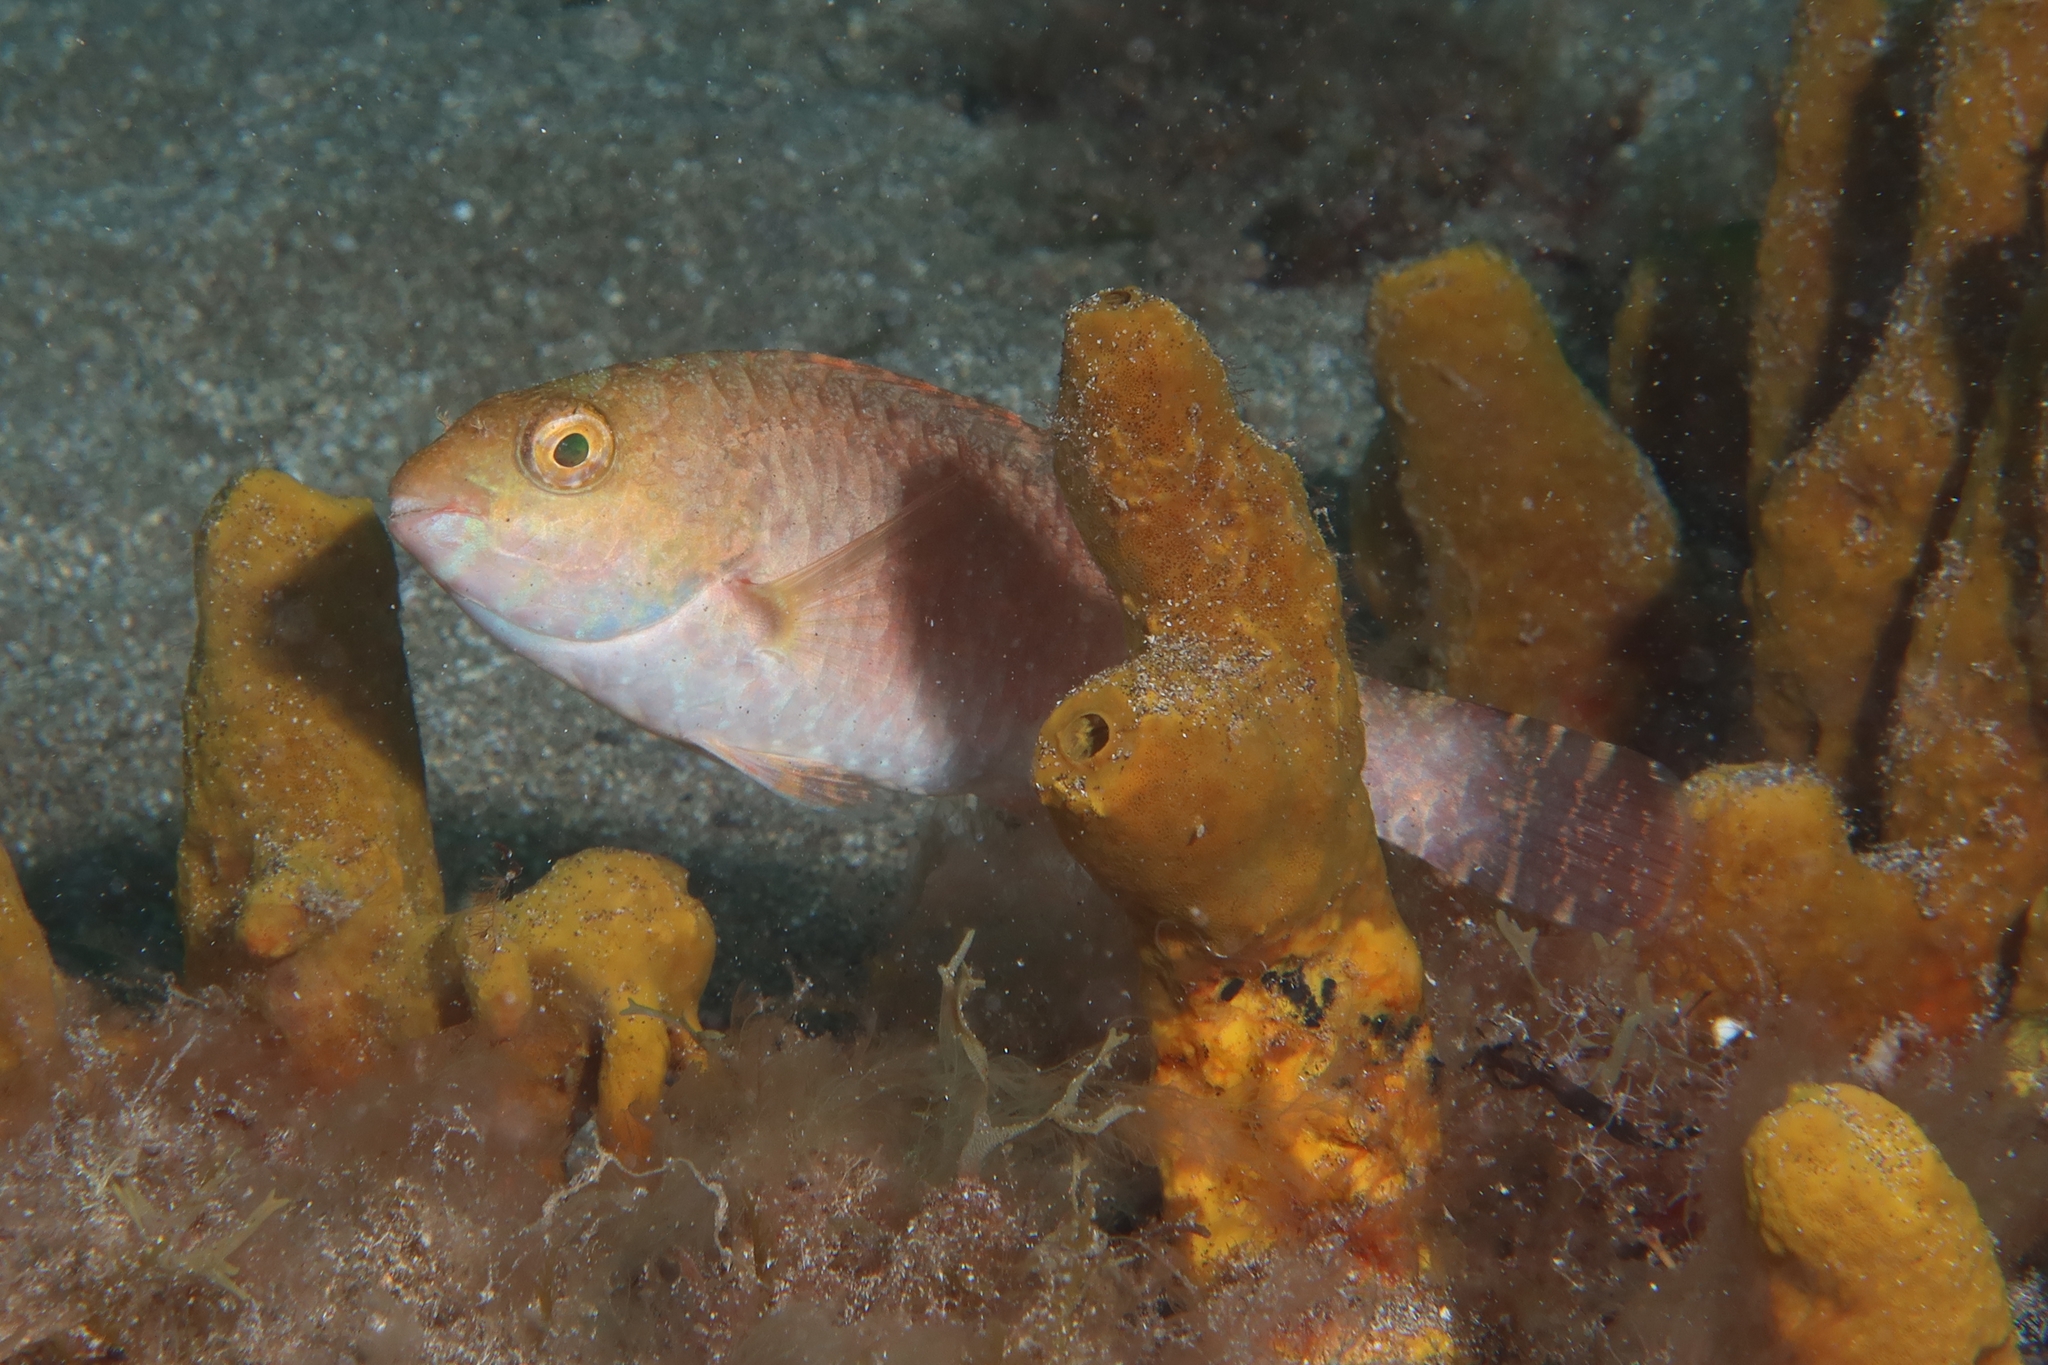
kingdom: Animalia
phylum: Chordata
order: Perciformes
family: Scaridae
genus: Sparisoma
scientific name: Sparisoma cretense
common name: Parrotfish
